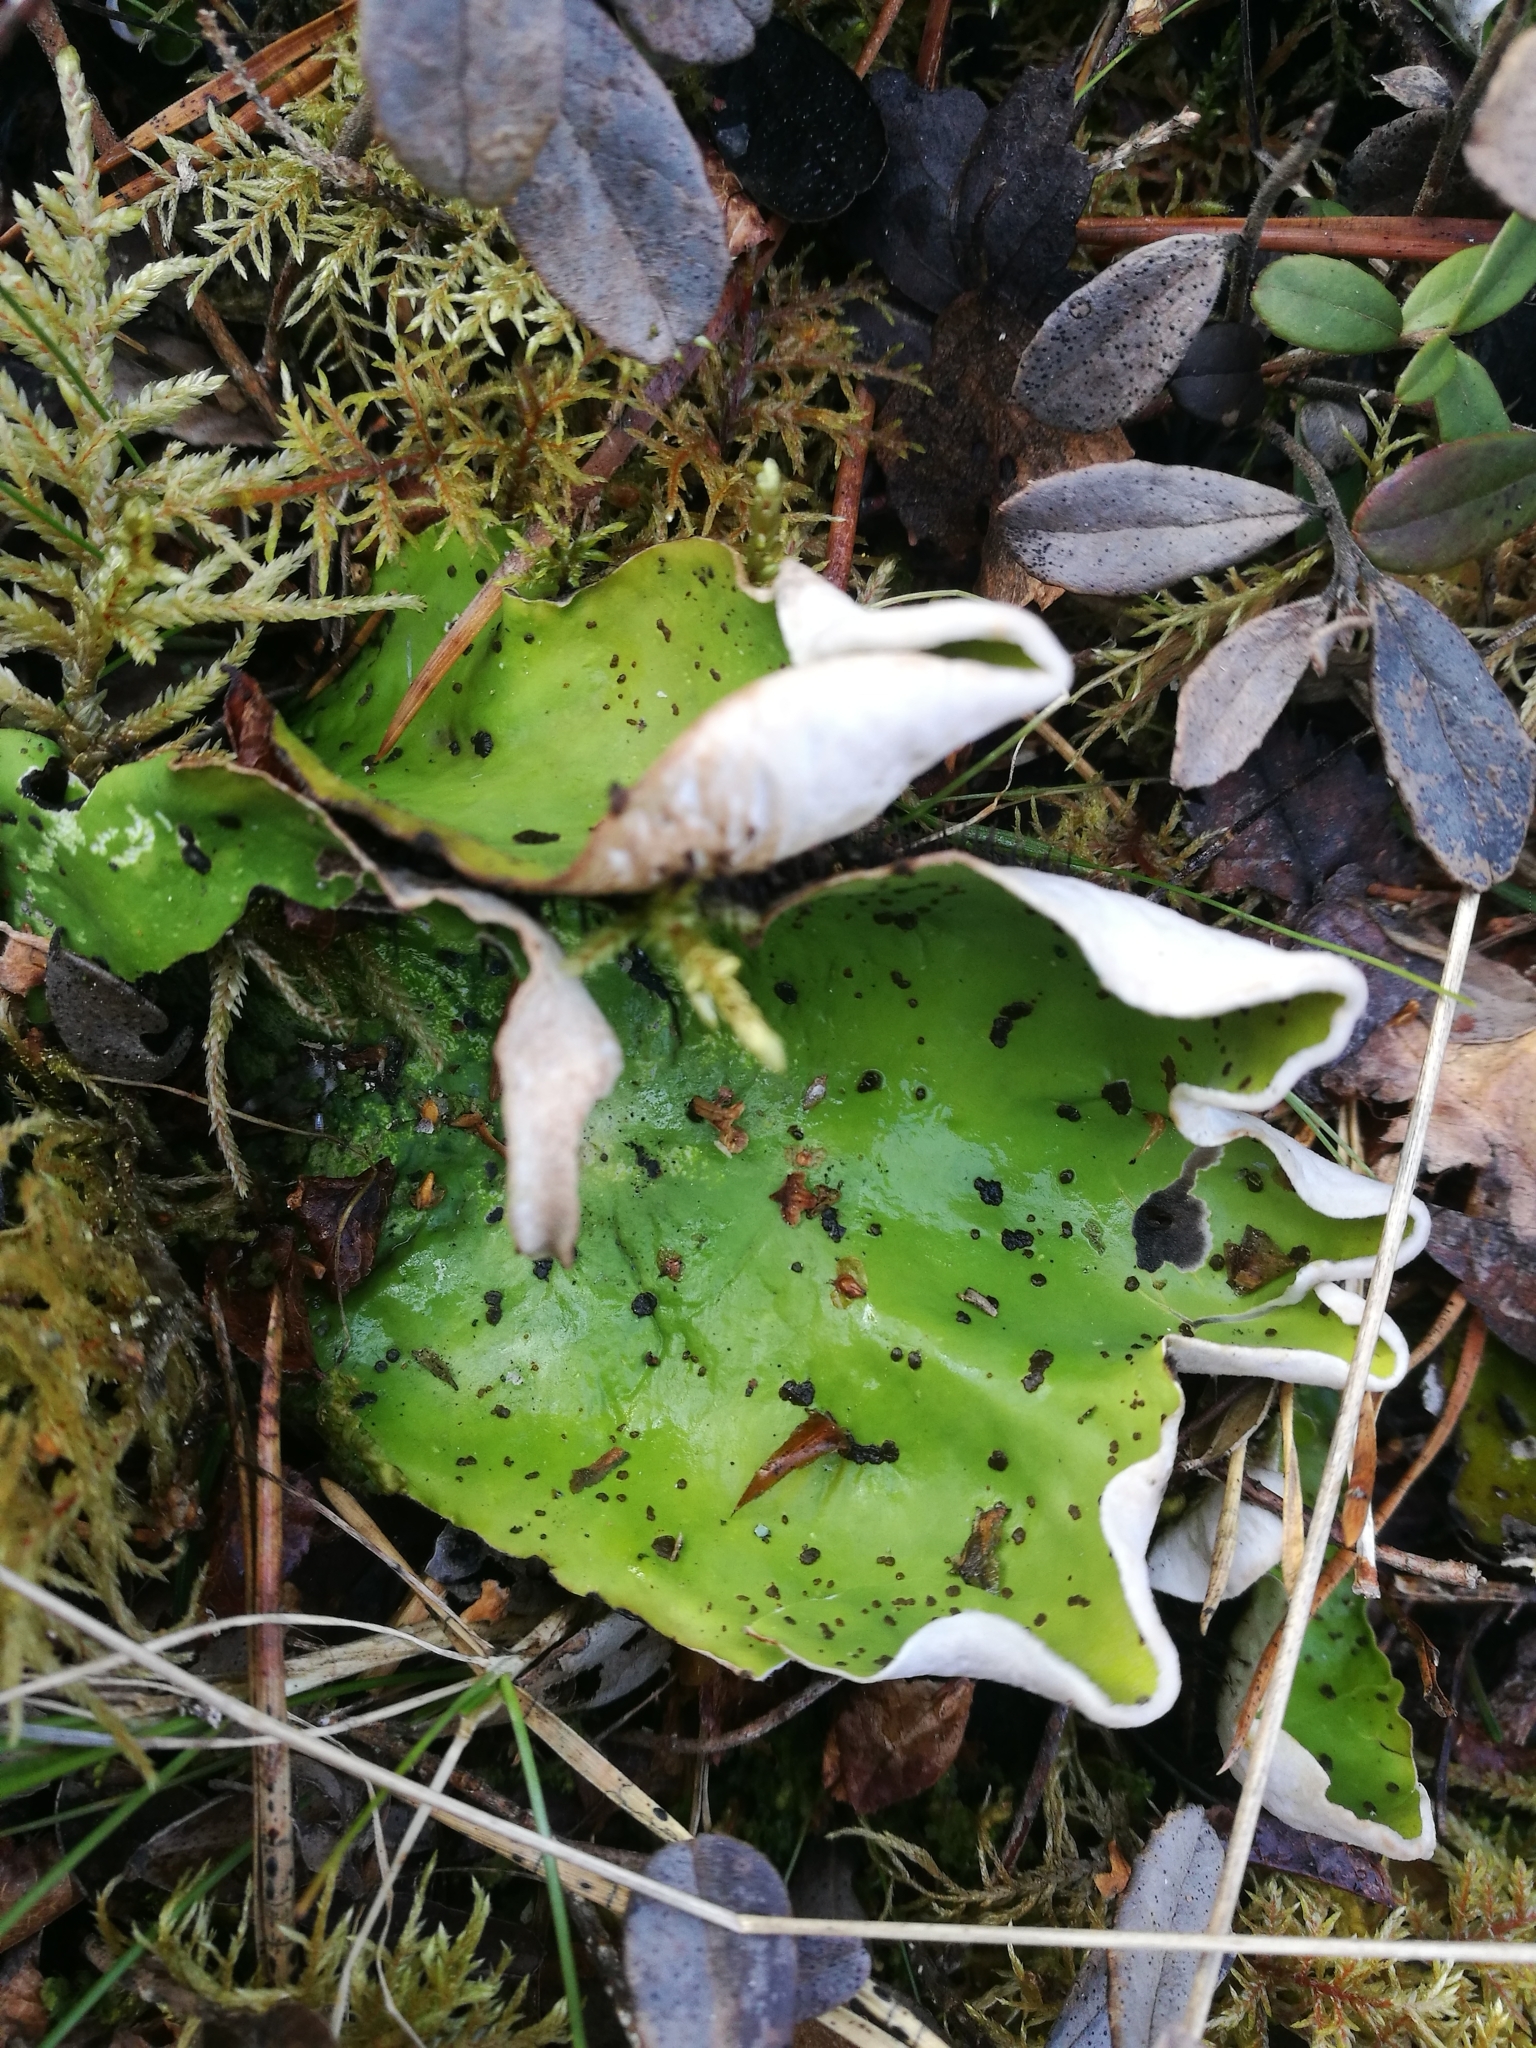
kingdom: Fungi
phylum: Ascomycota
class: Lecanoromycetes
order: Peltigerales
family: Peltigeraceae
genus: Peltigera
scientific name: Peltigera aphthosa
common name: Common freckle pelt lichen
